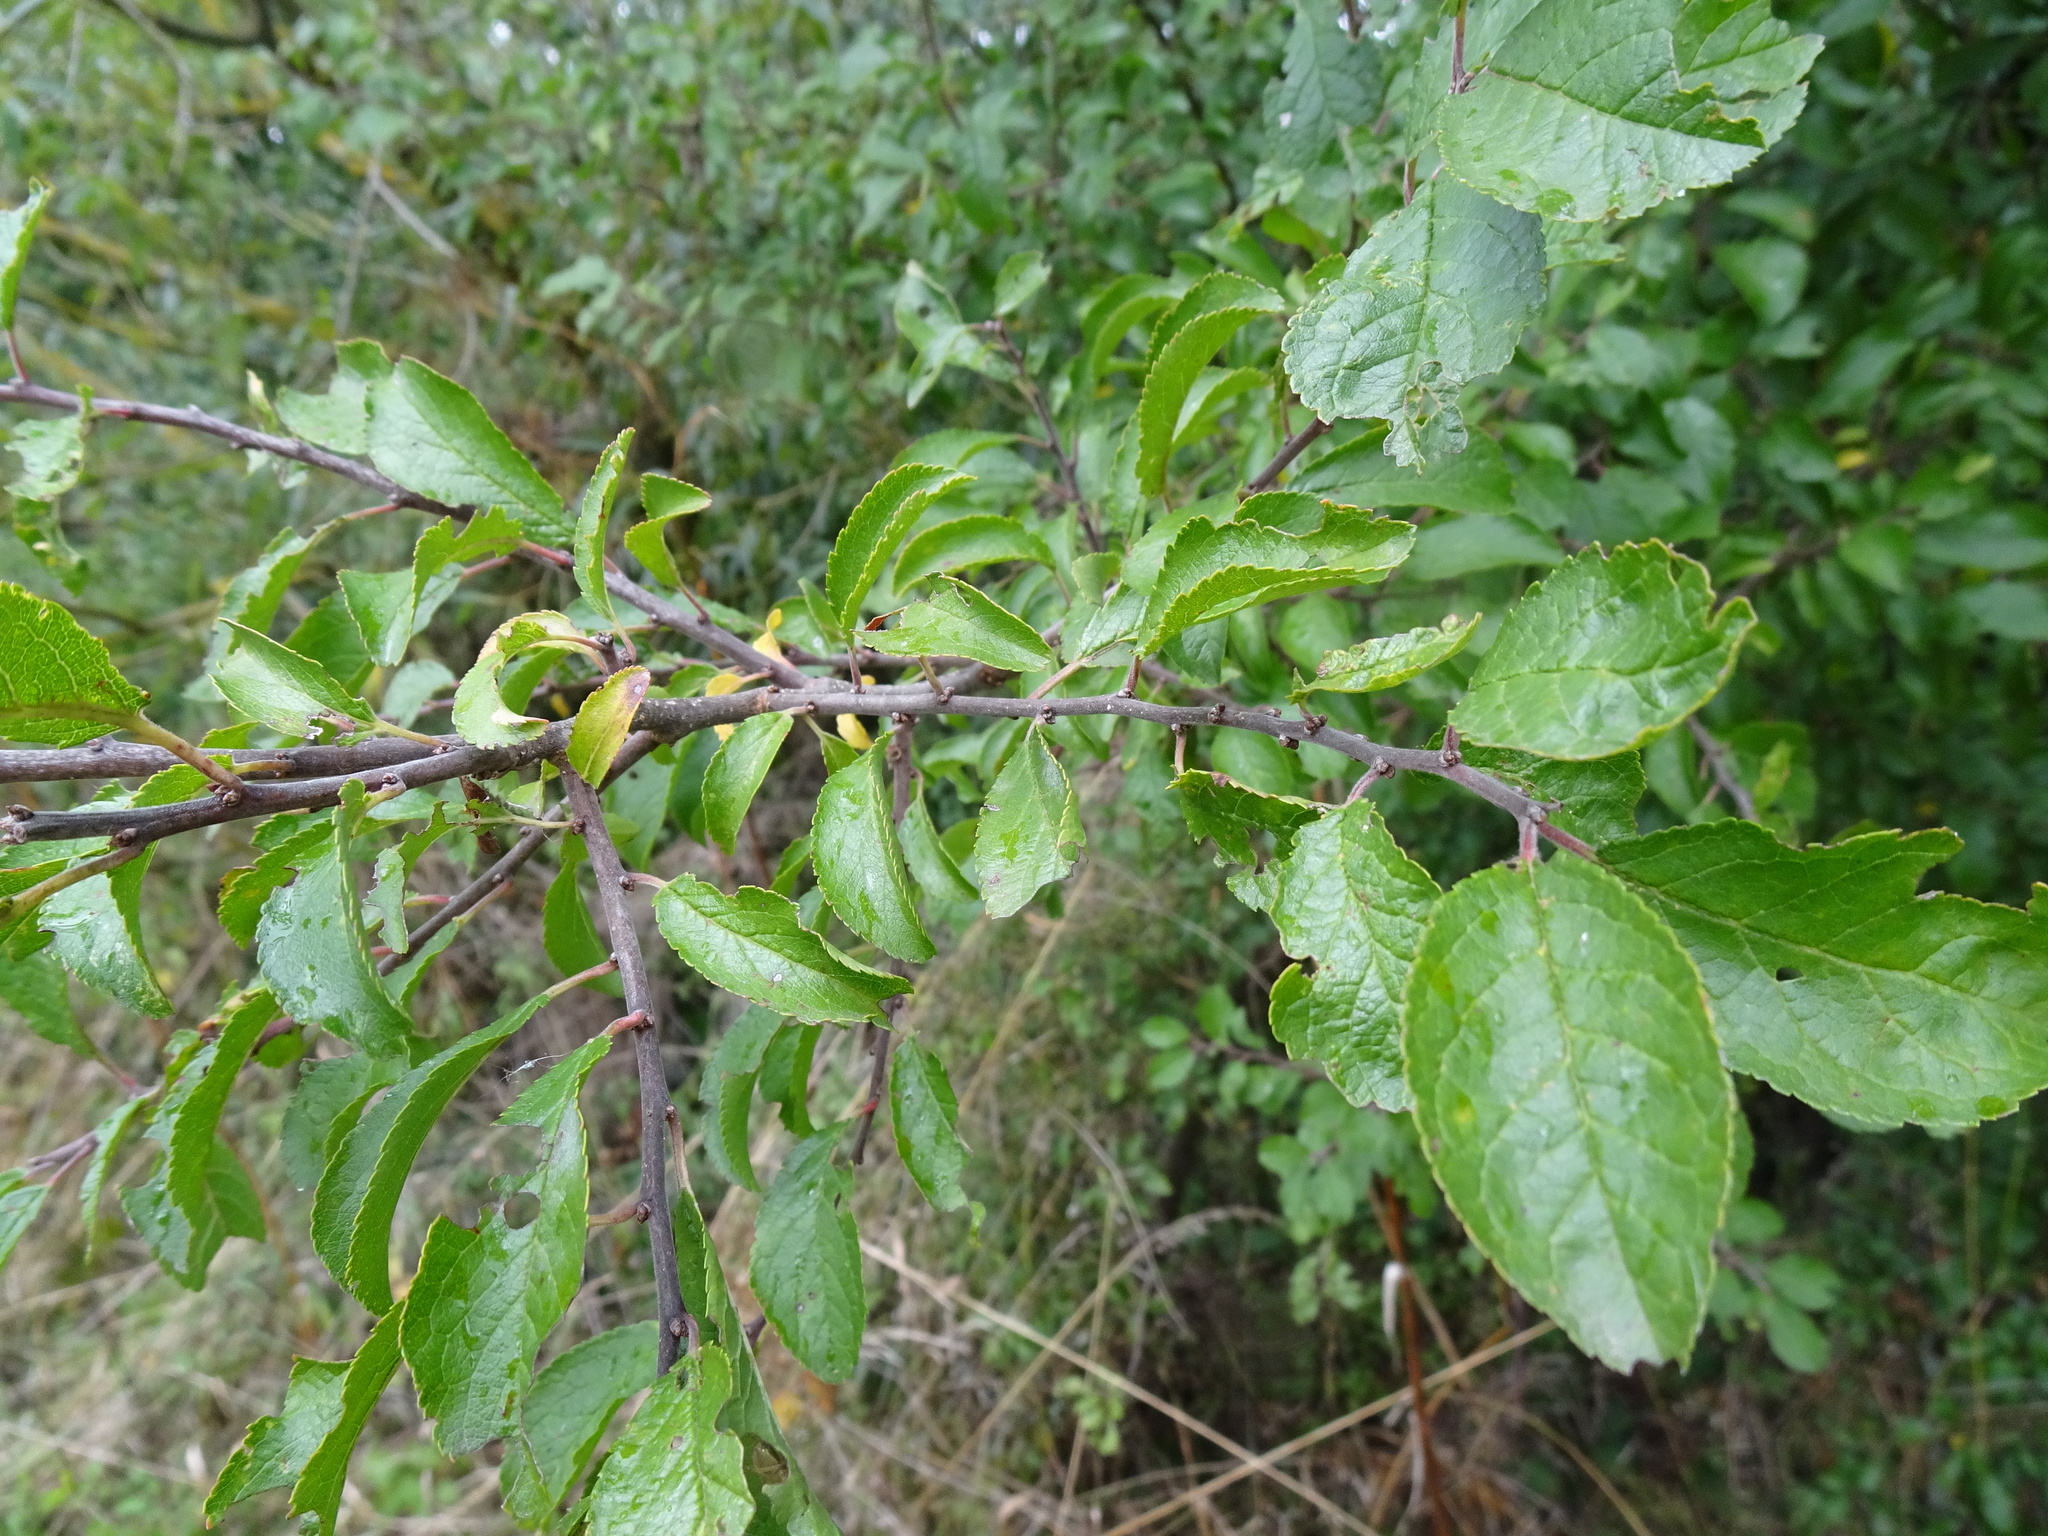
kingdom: Plantae
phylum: Tracheophyta
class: Magnoliopsida
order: Rosales
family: Rosaceae
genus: Prunus
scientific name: Prunus spinosa
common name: Blackthorn
